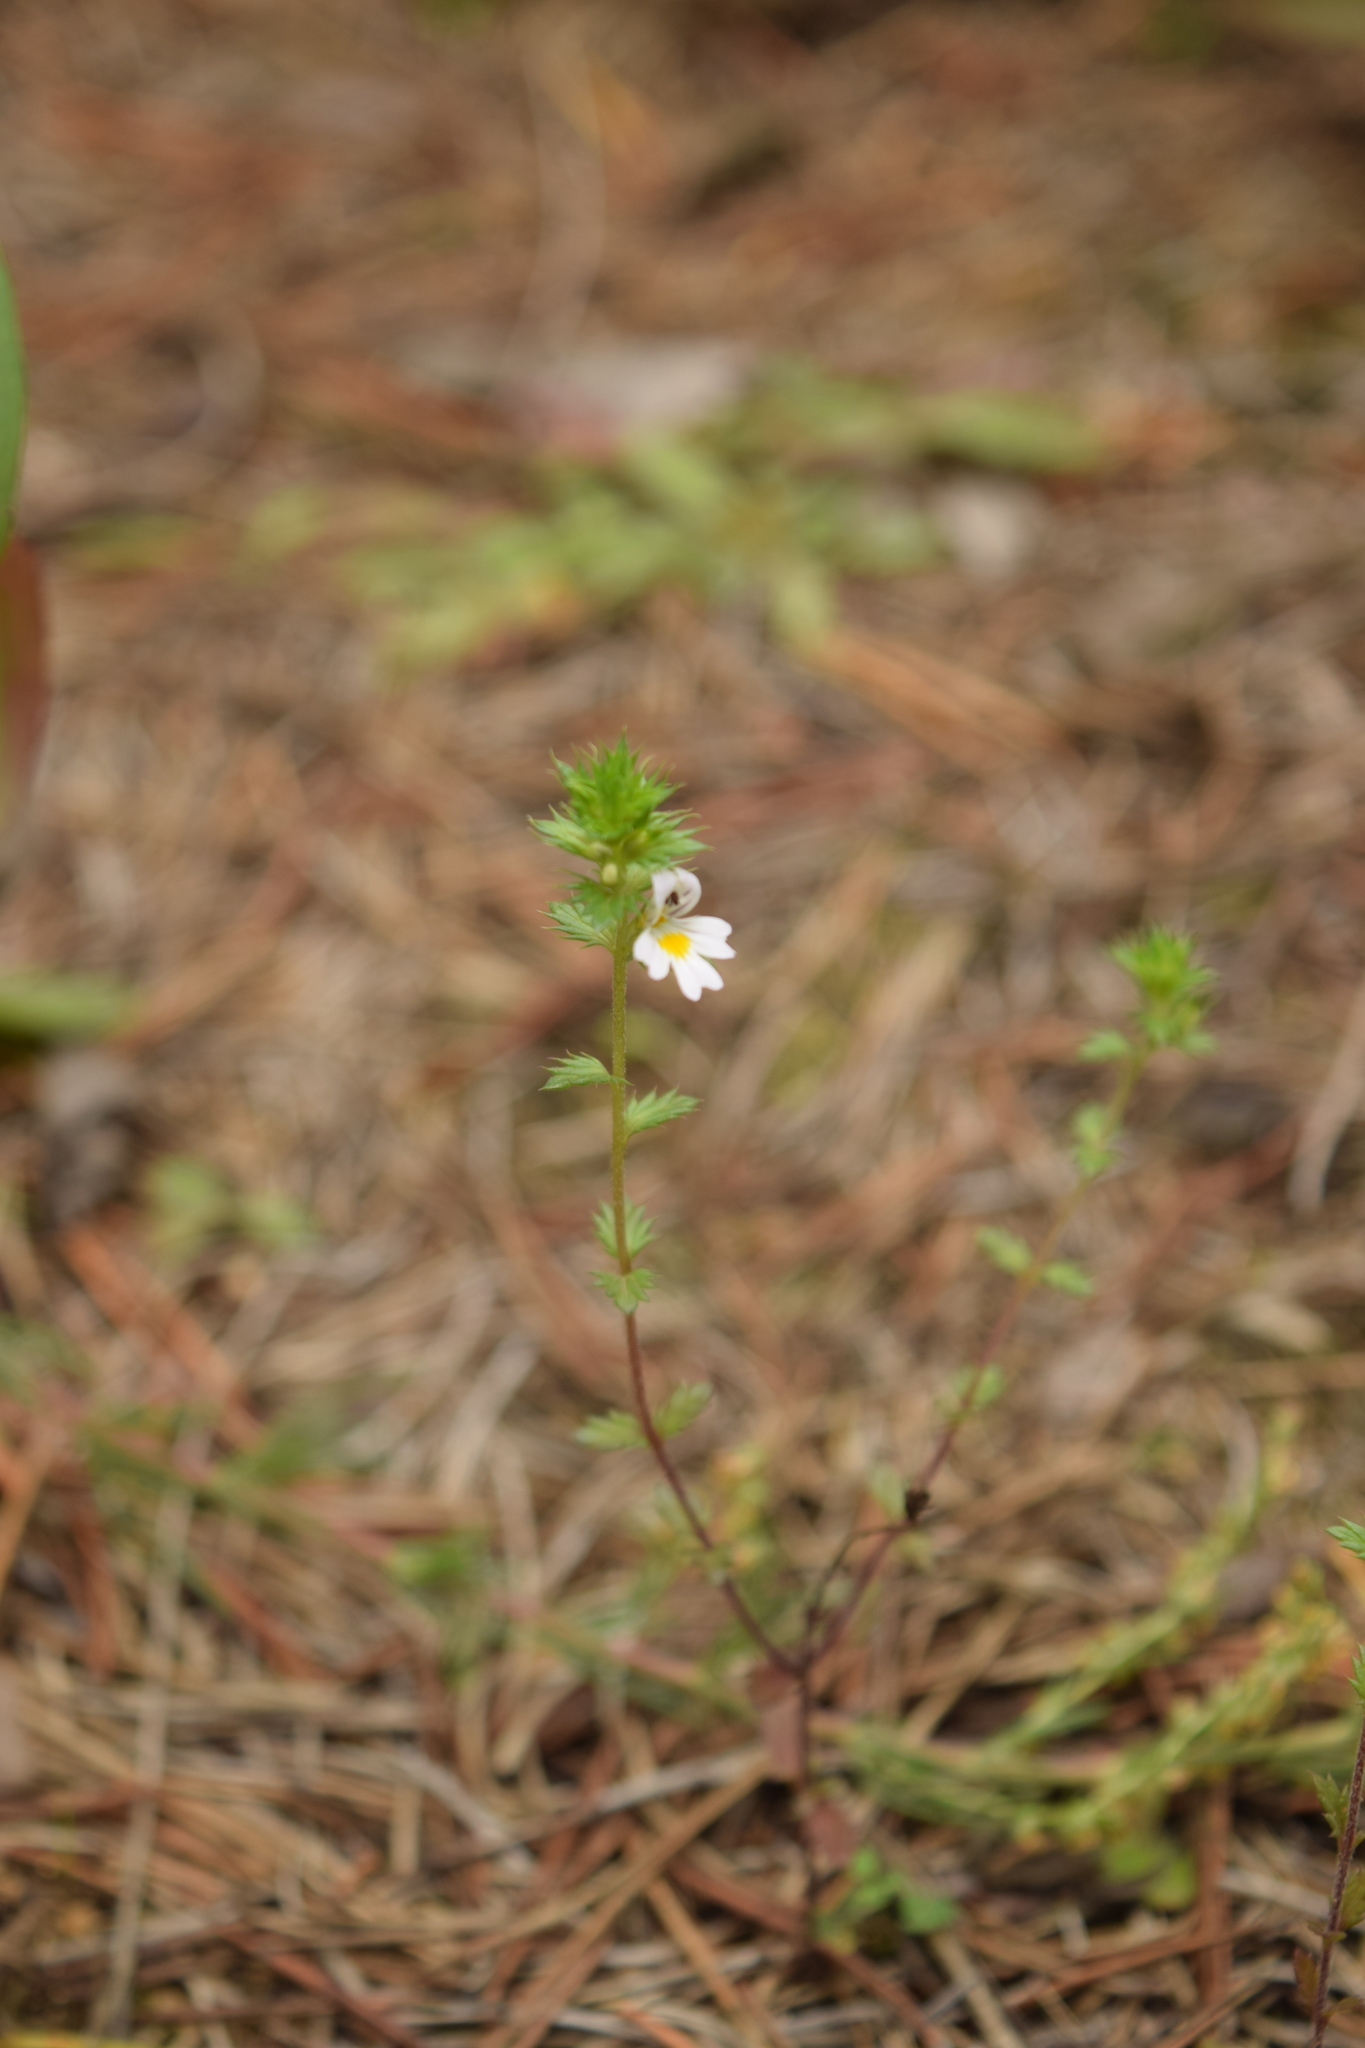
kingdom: Plantae
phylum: Tracheophyta
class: Magnoliopsida
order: Lamiales
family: Orobanchaceae
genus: Euphrasia
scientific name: Euphrasia
